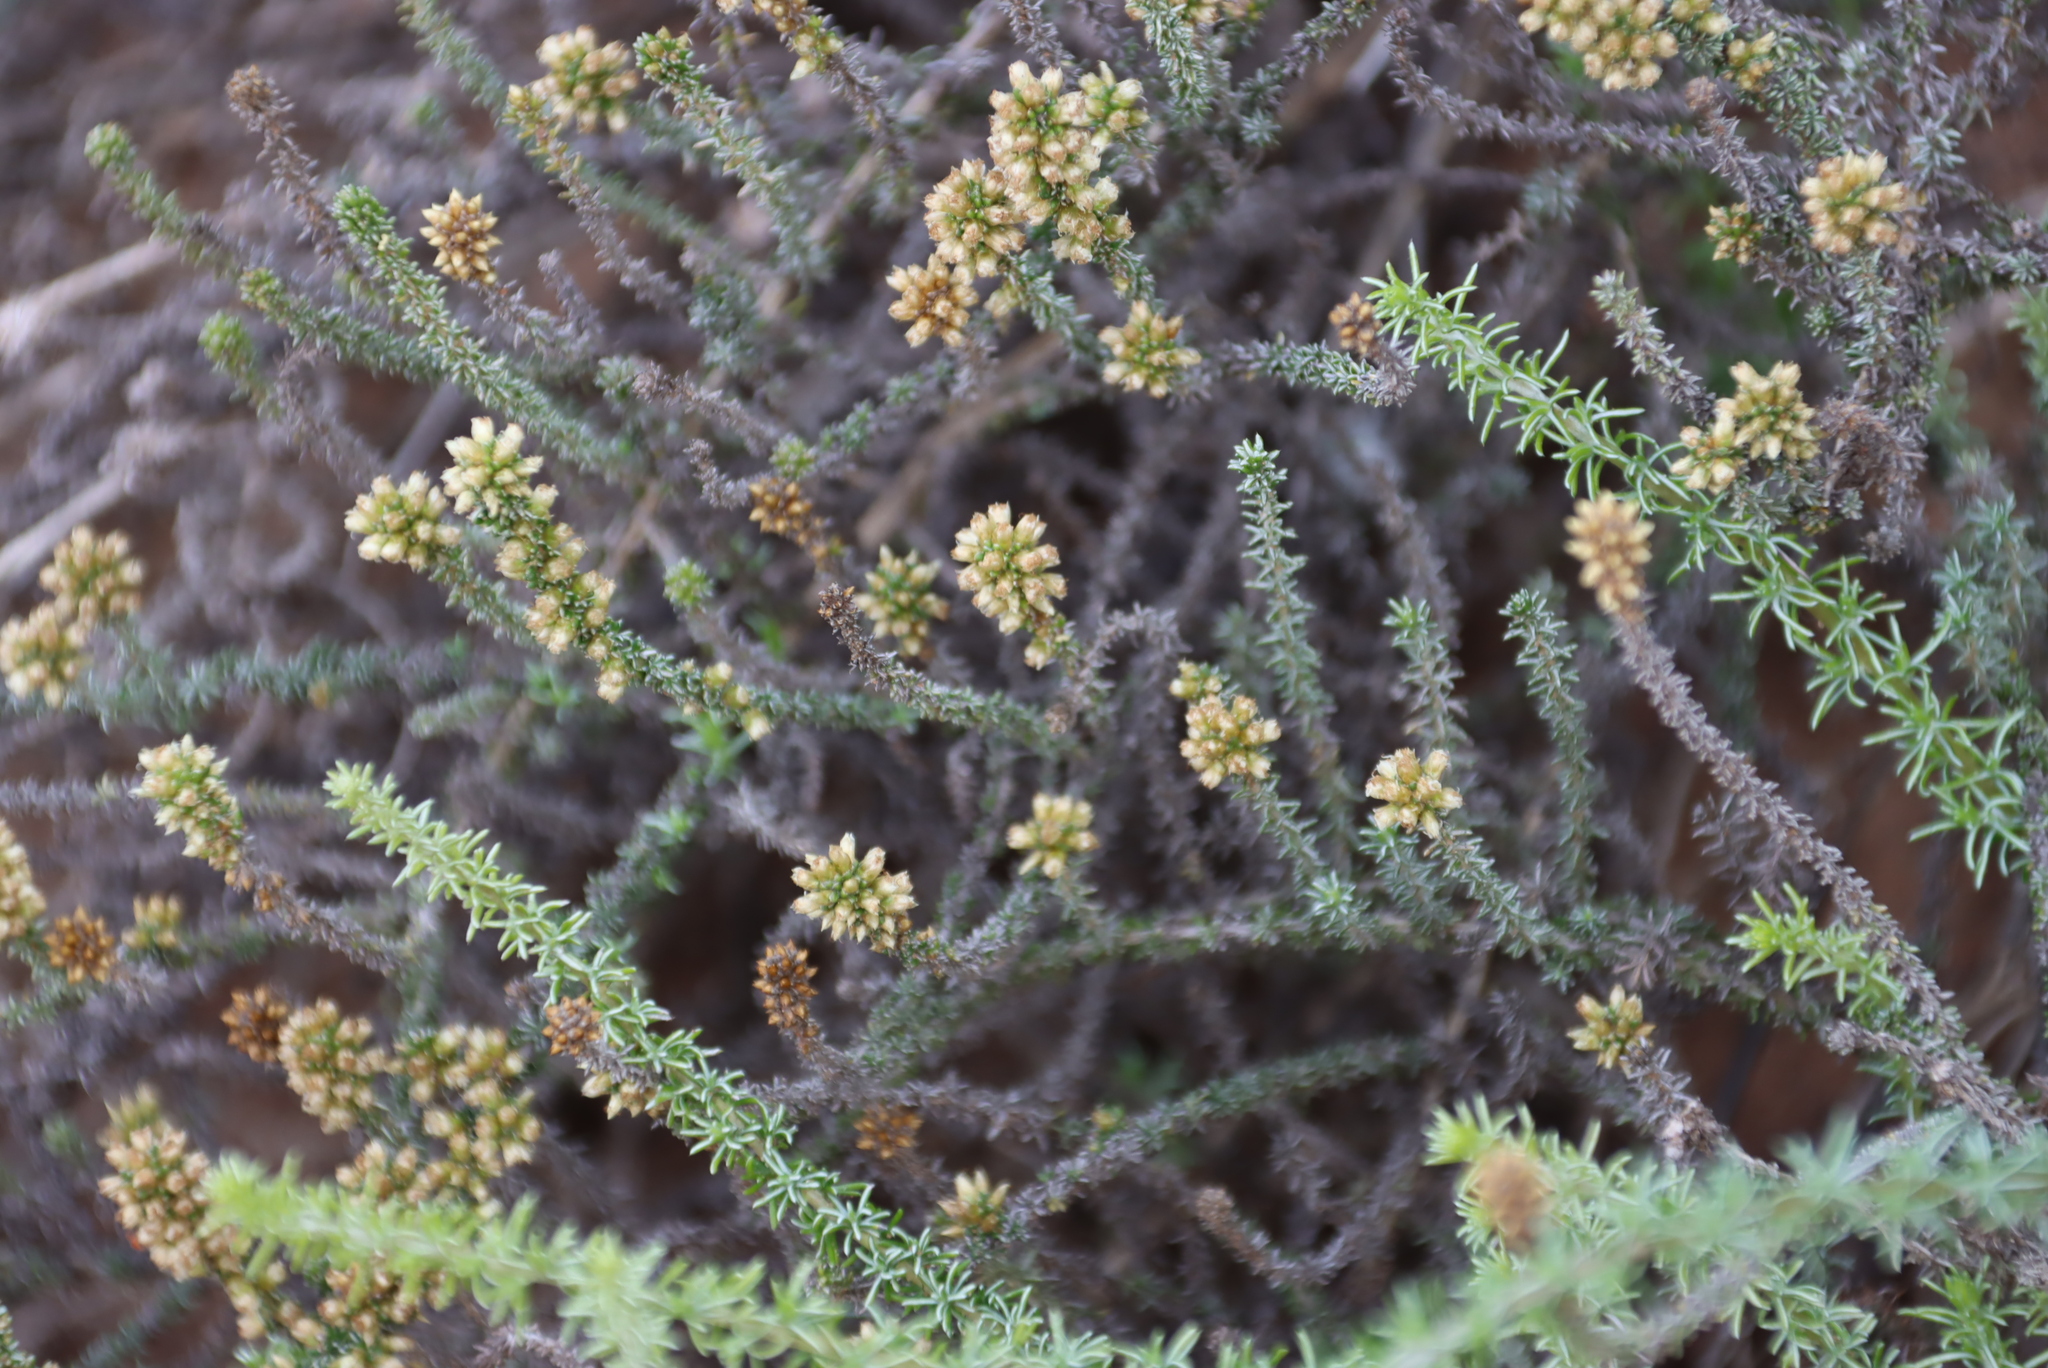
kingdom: Plantae
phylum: Tracheophyta
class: Magnoliopsida
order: Asterales
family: Asteraceae
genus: Ifloga
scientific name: Ifloga pilulifera
